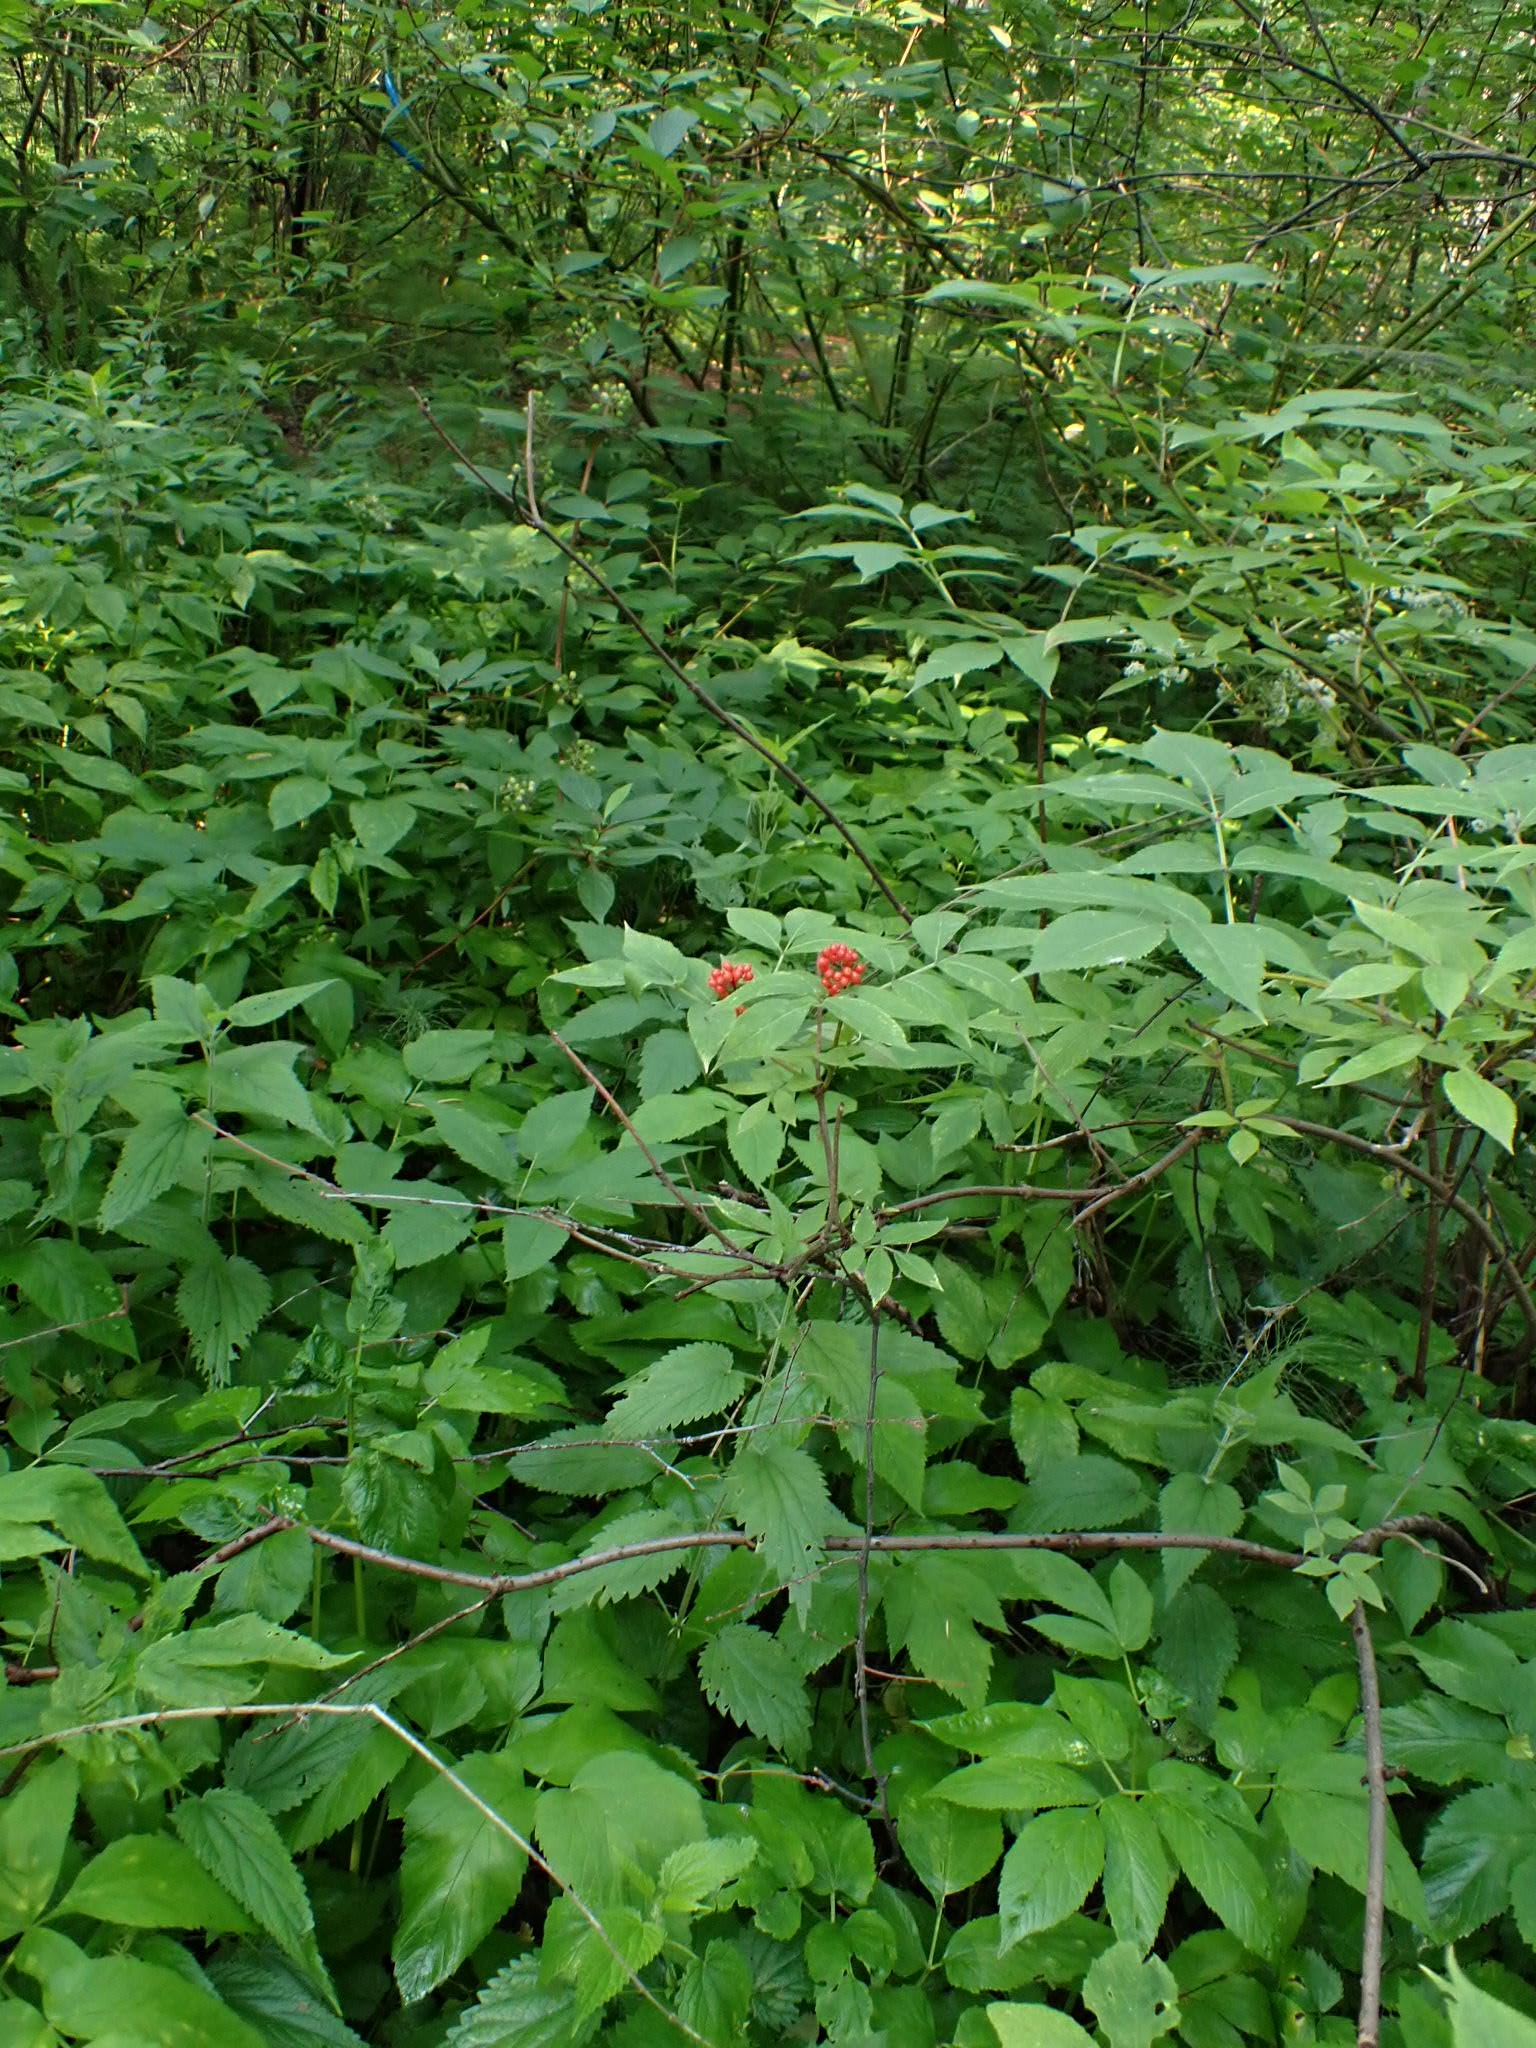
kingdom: Plantae
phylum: Tracheophyta
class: Magnoliopsida
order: Dipsacales
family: Viburnaceae
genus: Sambucus
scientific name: Sambucus sibirica
